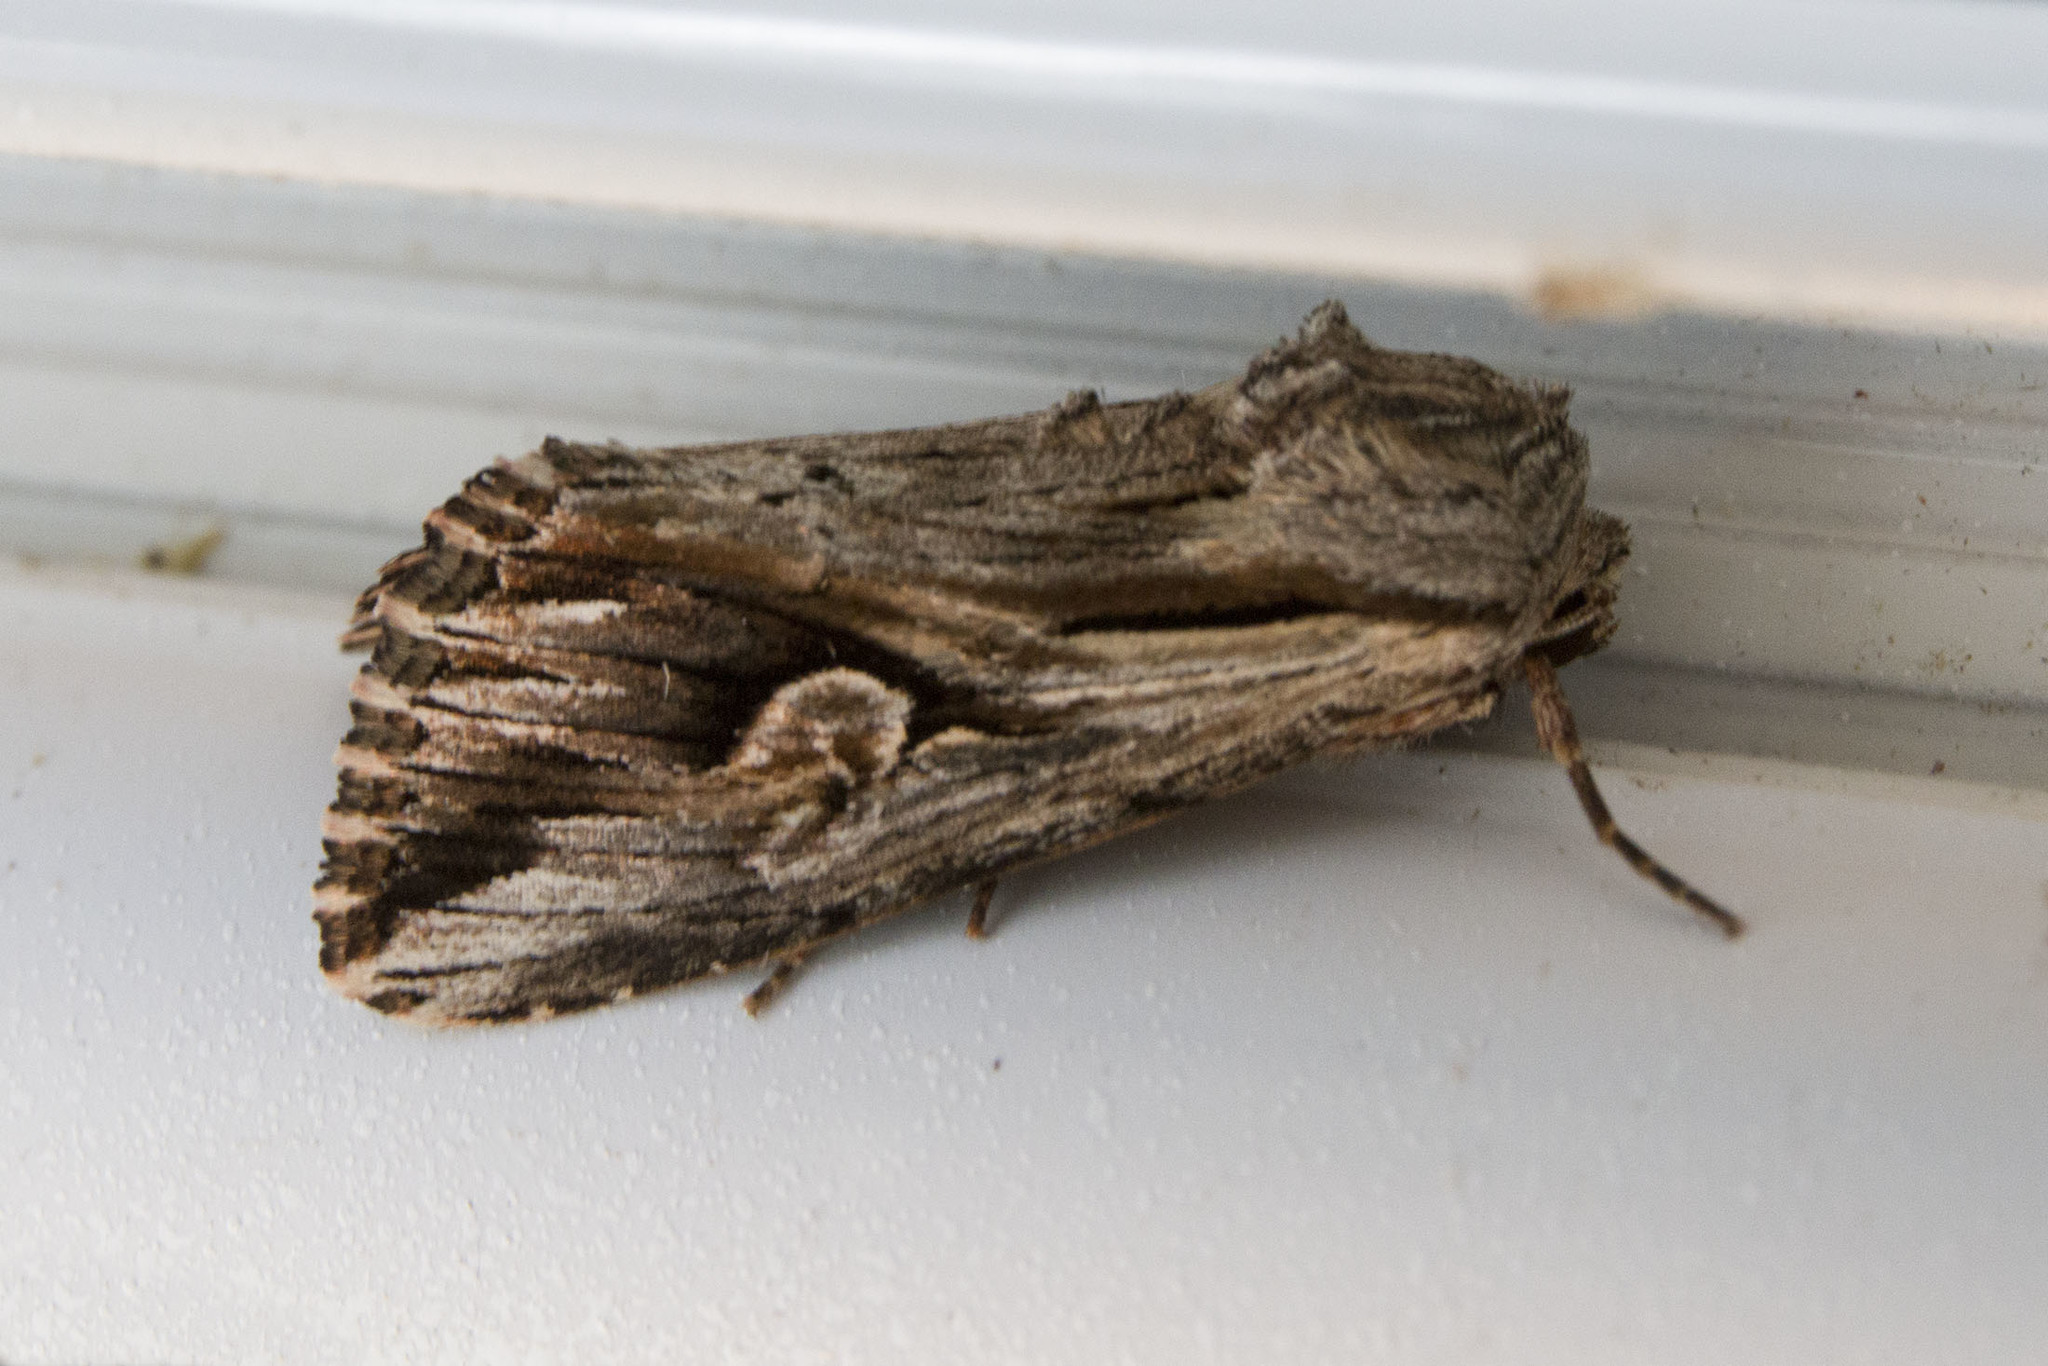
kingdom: Animalia
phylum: Arthropoda
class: Insecta
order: Lepidoptera
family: Noctuidae
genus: Nedra
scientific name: Nedra ramosula
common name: Gray half-spot
